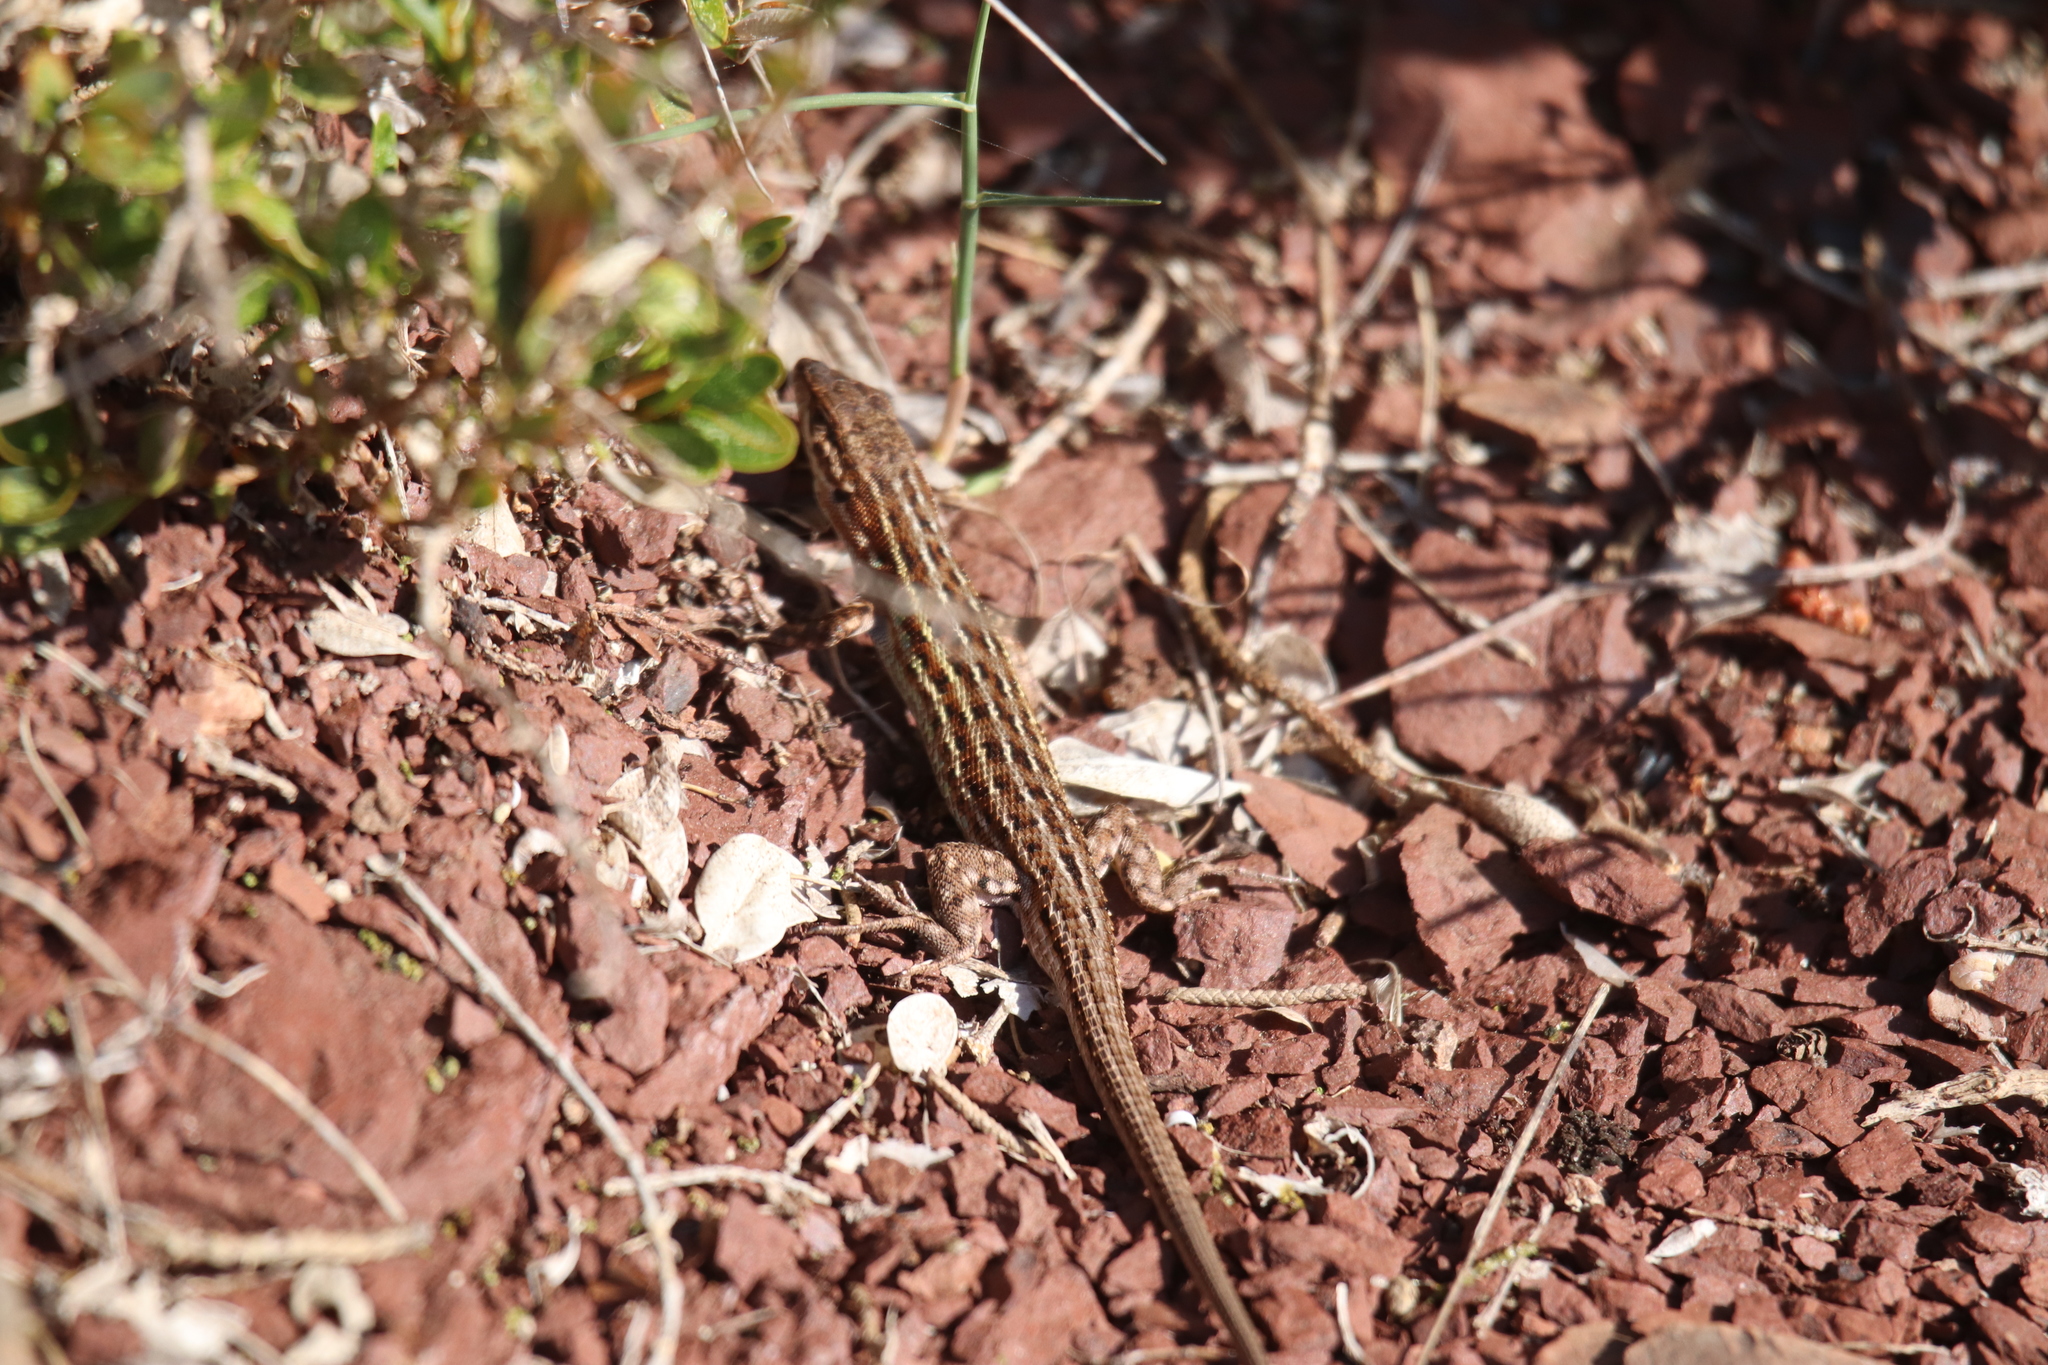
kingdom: Animalia
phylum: Chordata
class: Squamata
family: Lacertidae
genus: Psammodromus
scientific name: Psammodromus edwarsianus
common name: East iberian psammodromus
